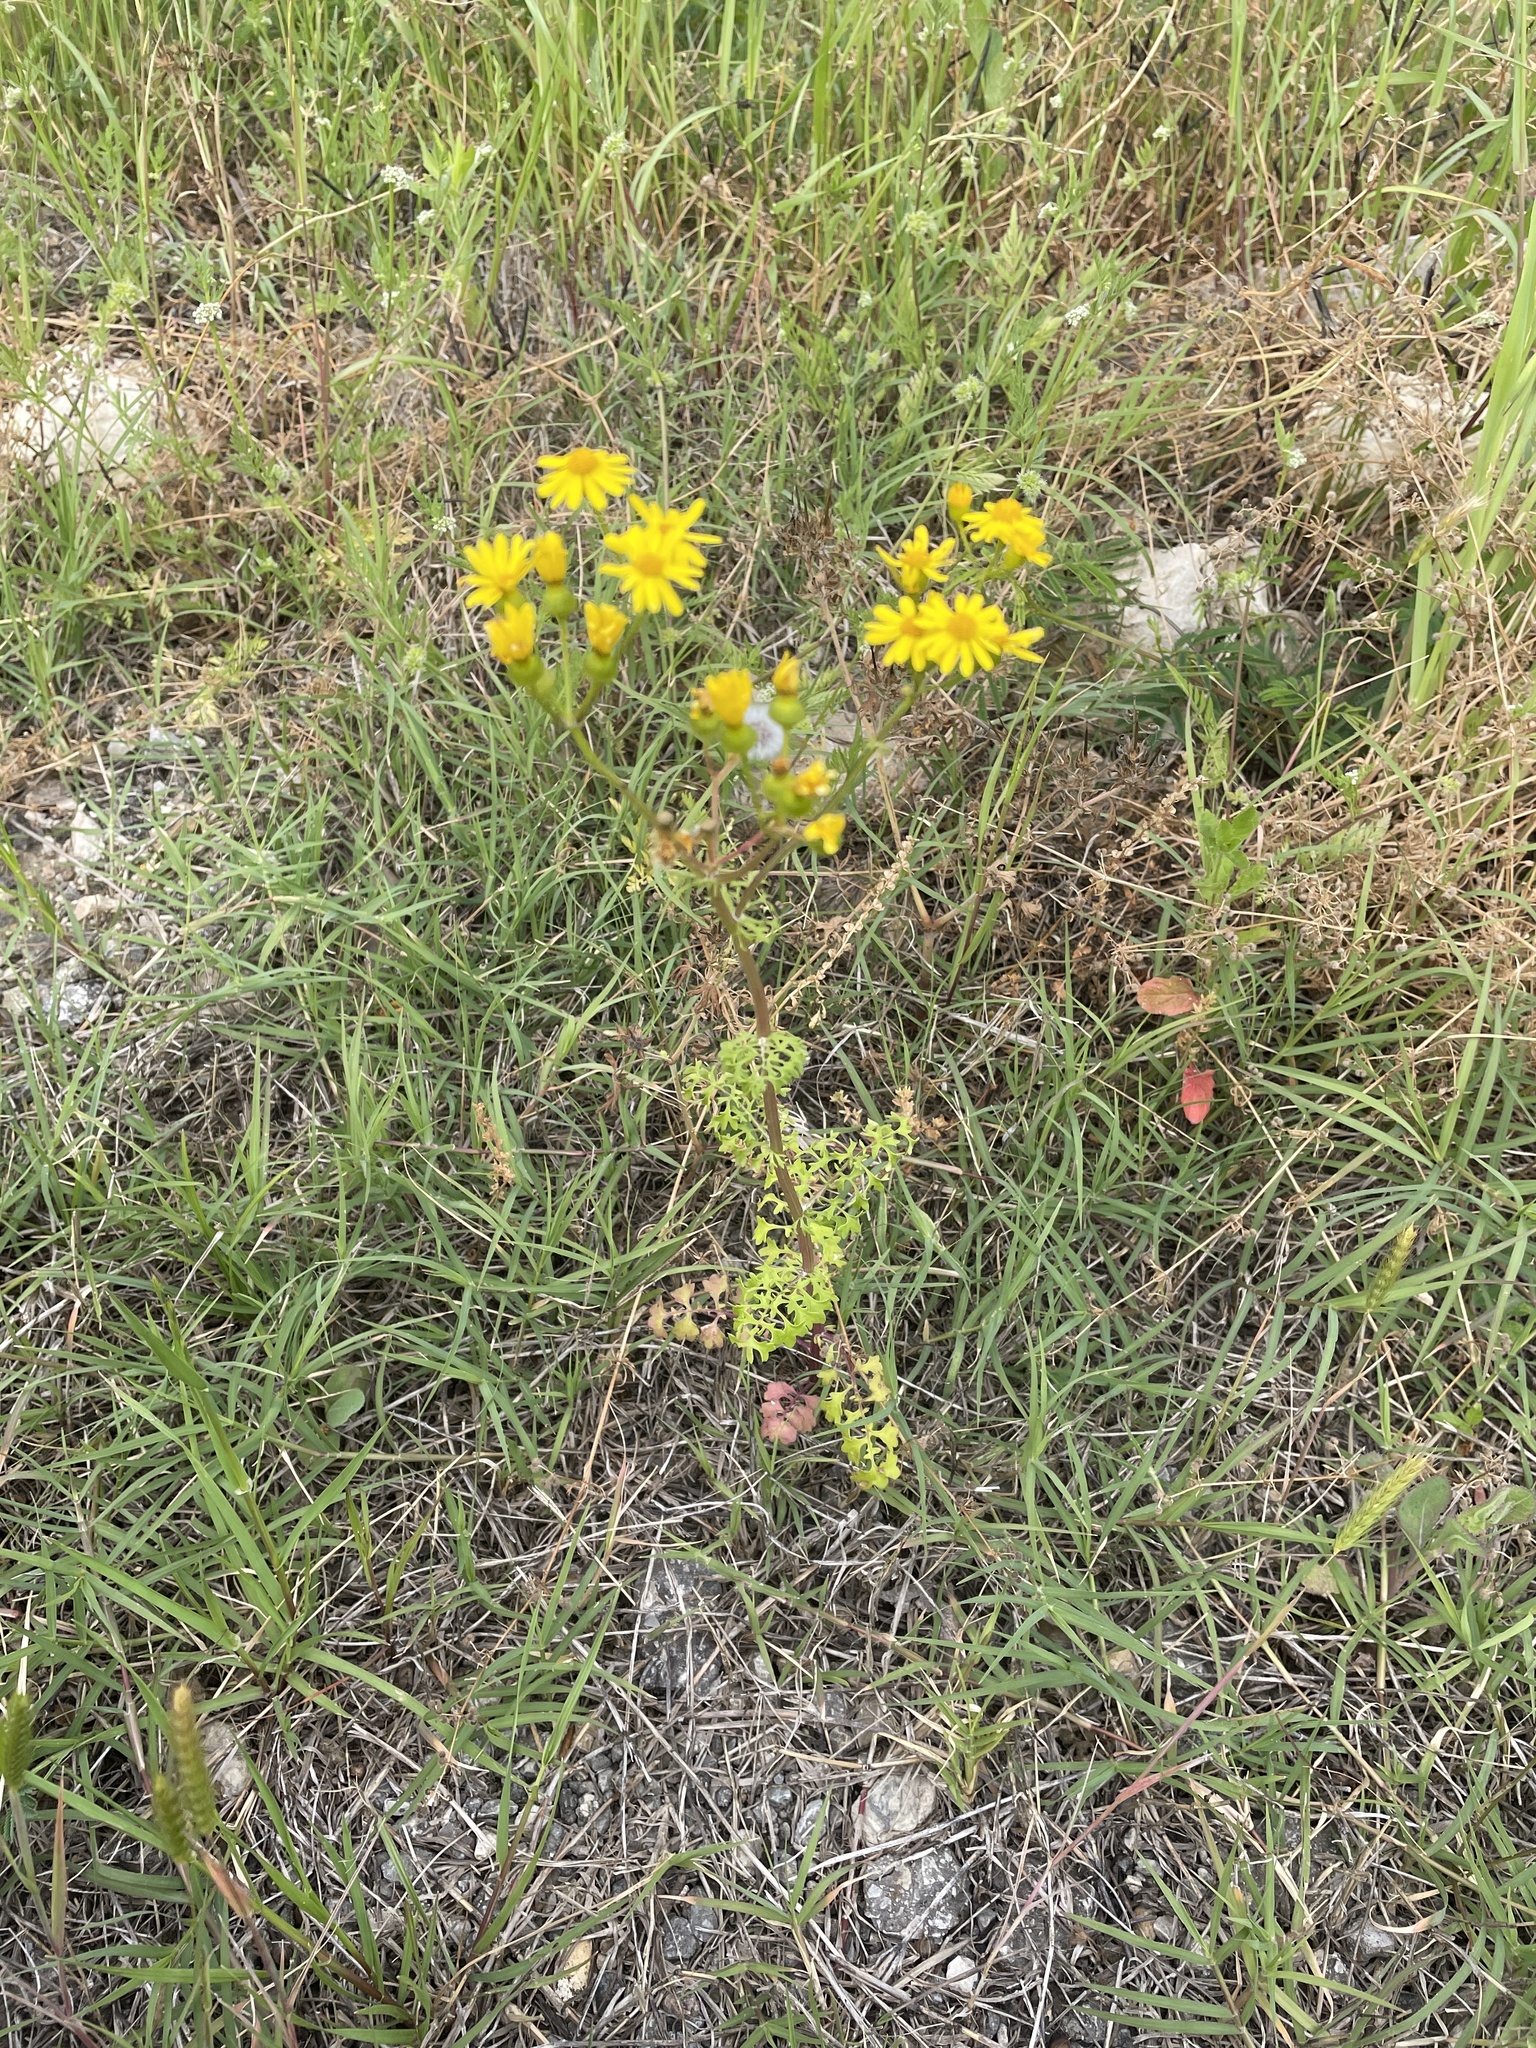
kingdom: Plantae
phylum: Tracheophyta
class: Magnoliopsida
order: Asterales
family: Asteraceae
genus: Packera
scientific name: Packera tampicana
